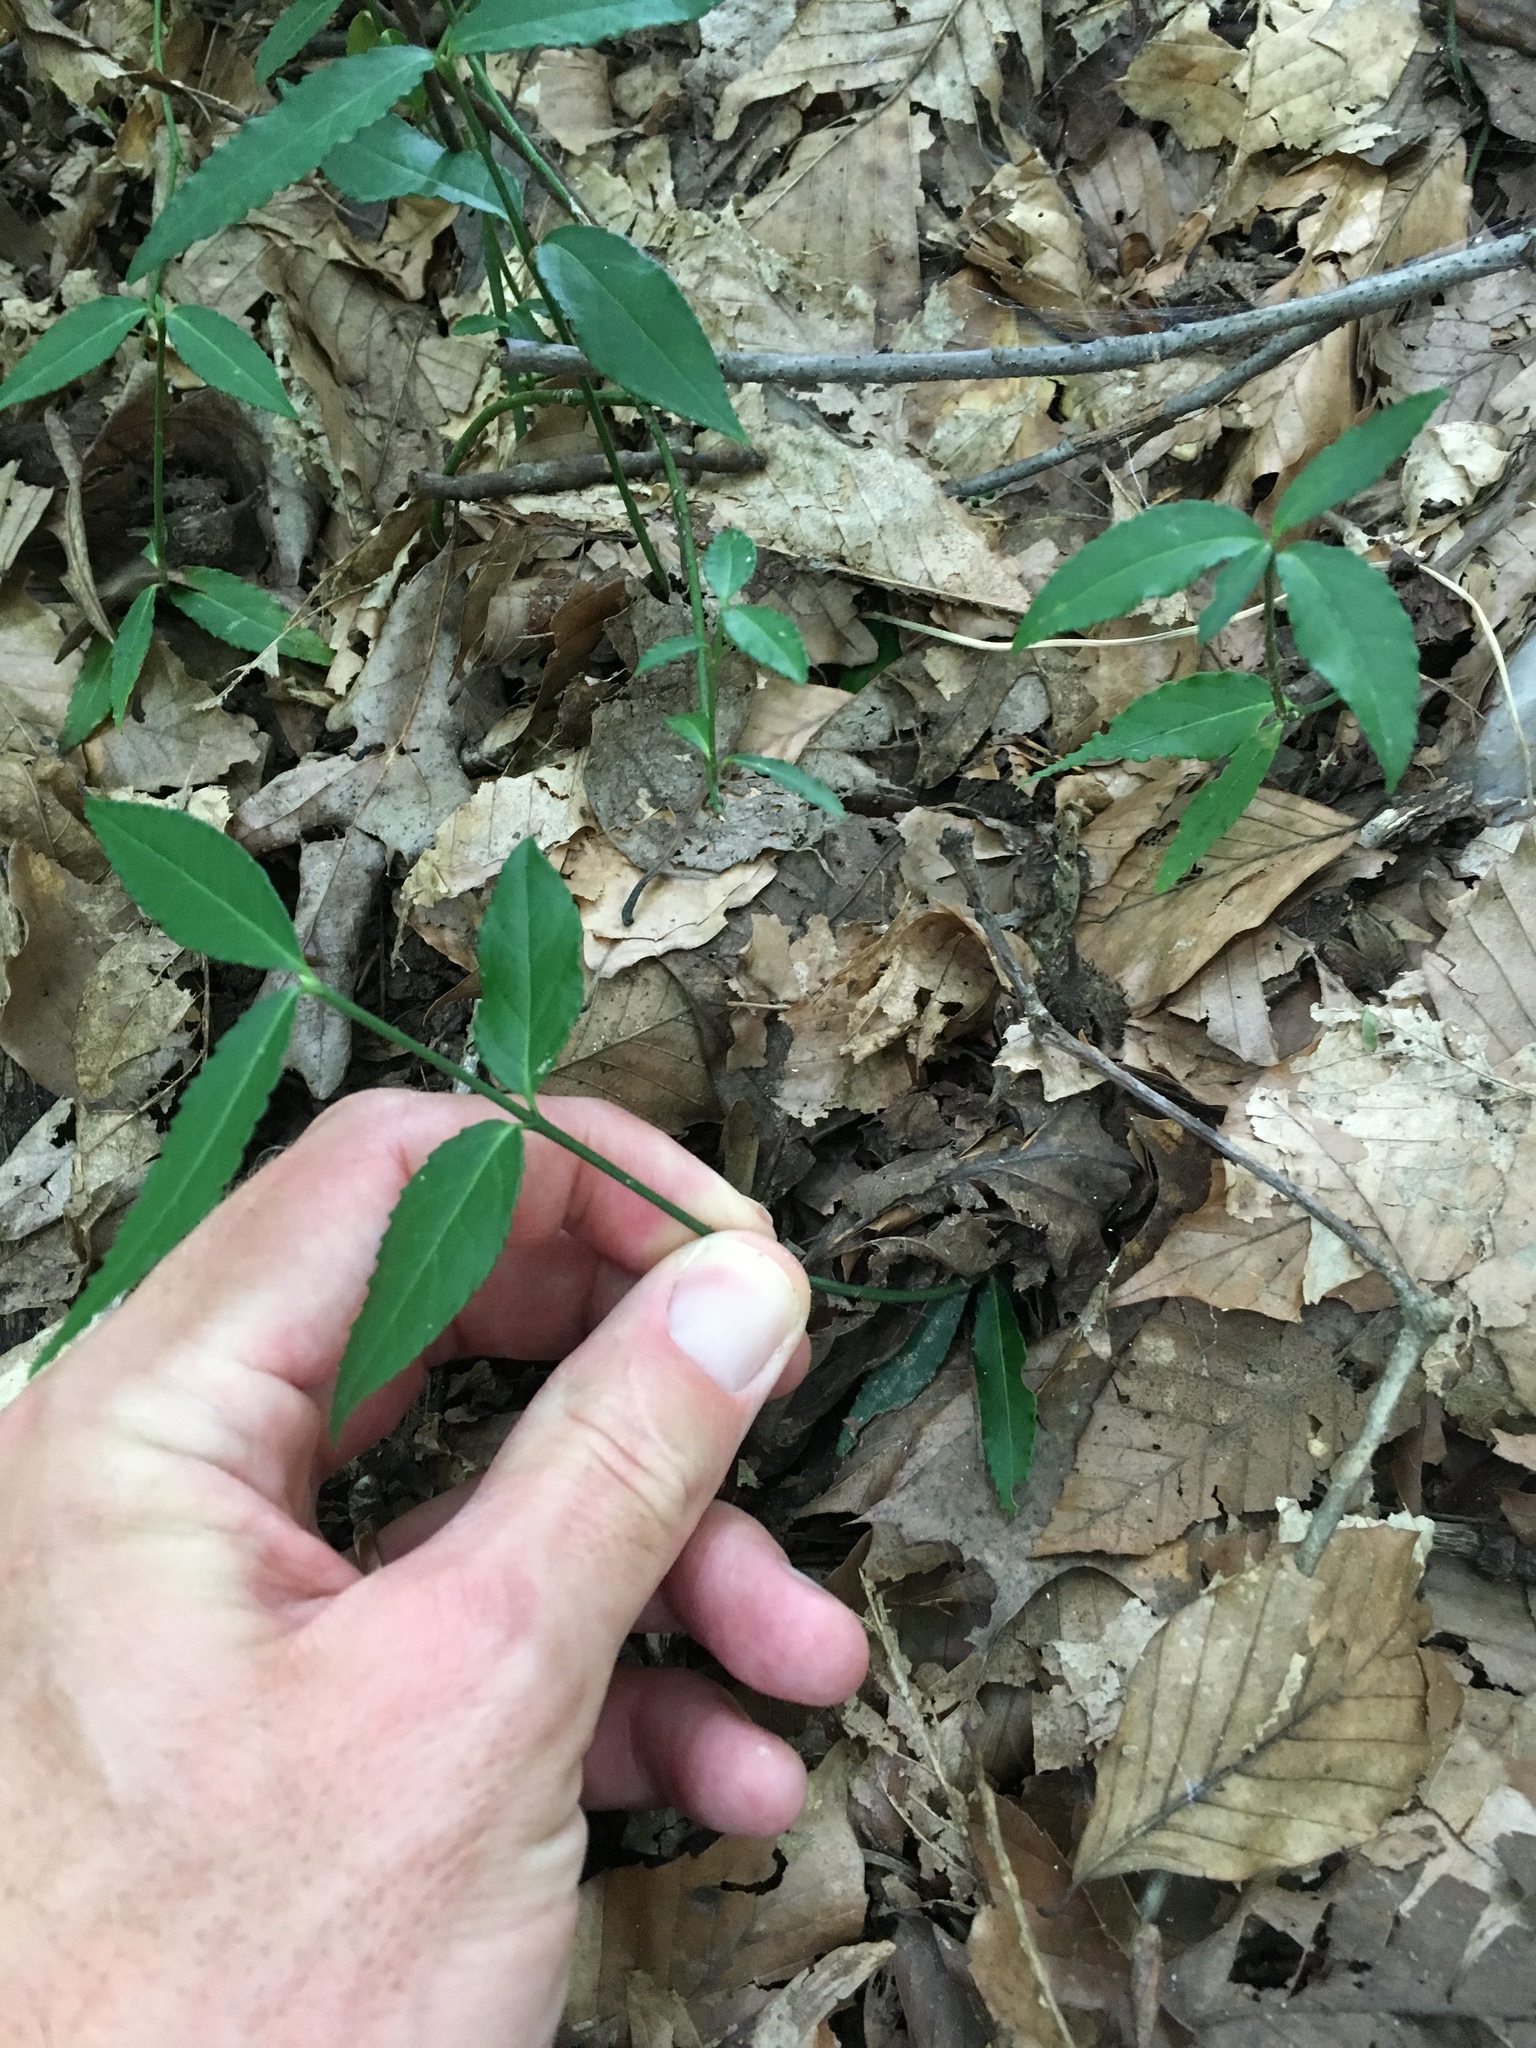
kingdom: Plantae
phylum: Tracheophyta
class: Magnoliopsida
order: Celastrales
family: Celastraceae
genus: Euonymus
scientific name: Euonymus americanus
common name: Bursting-heart
